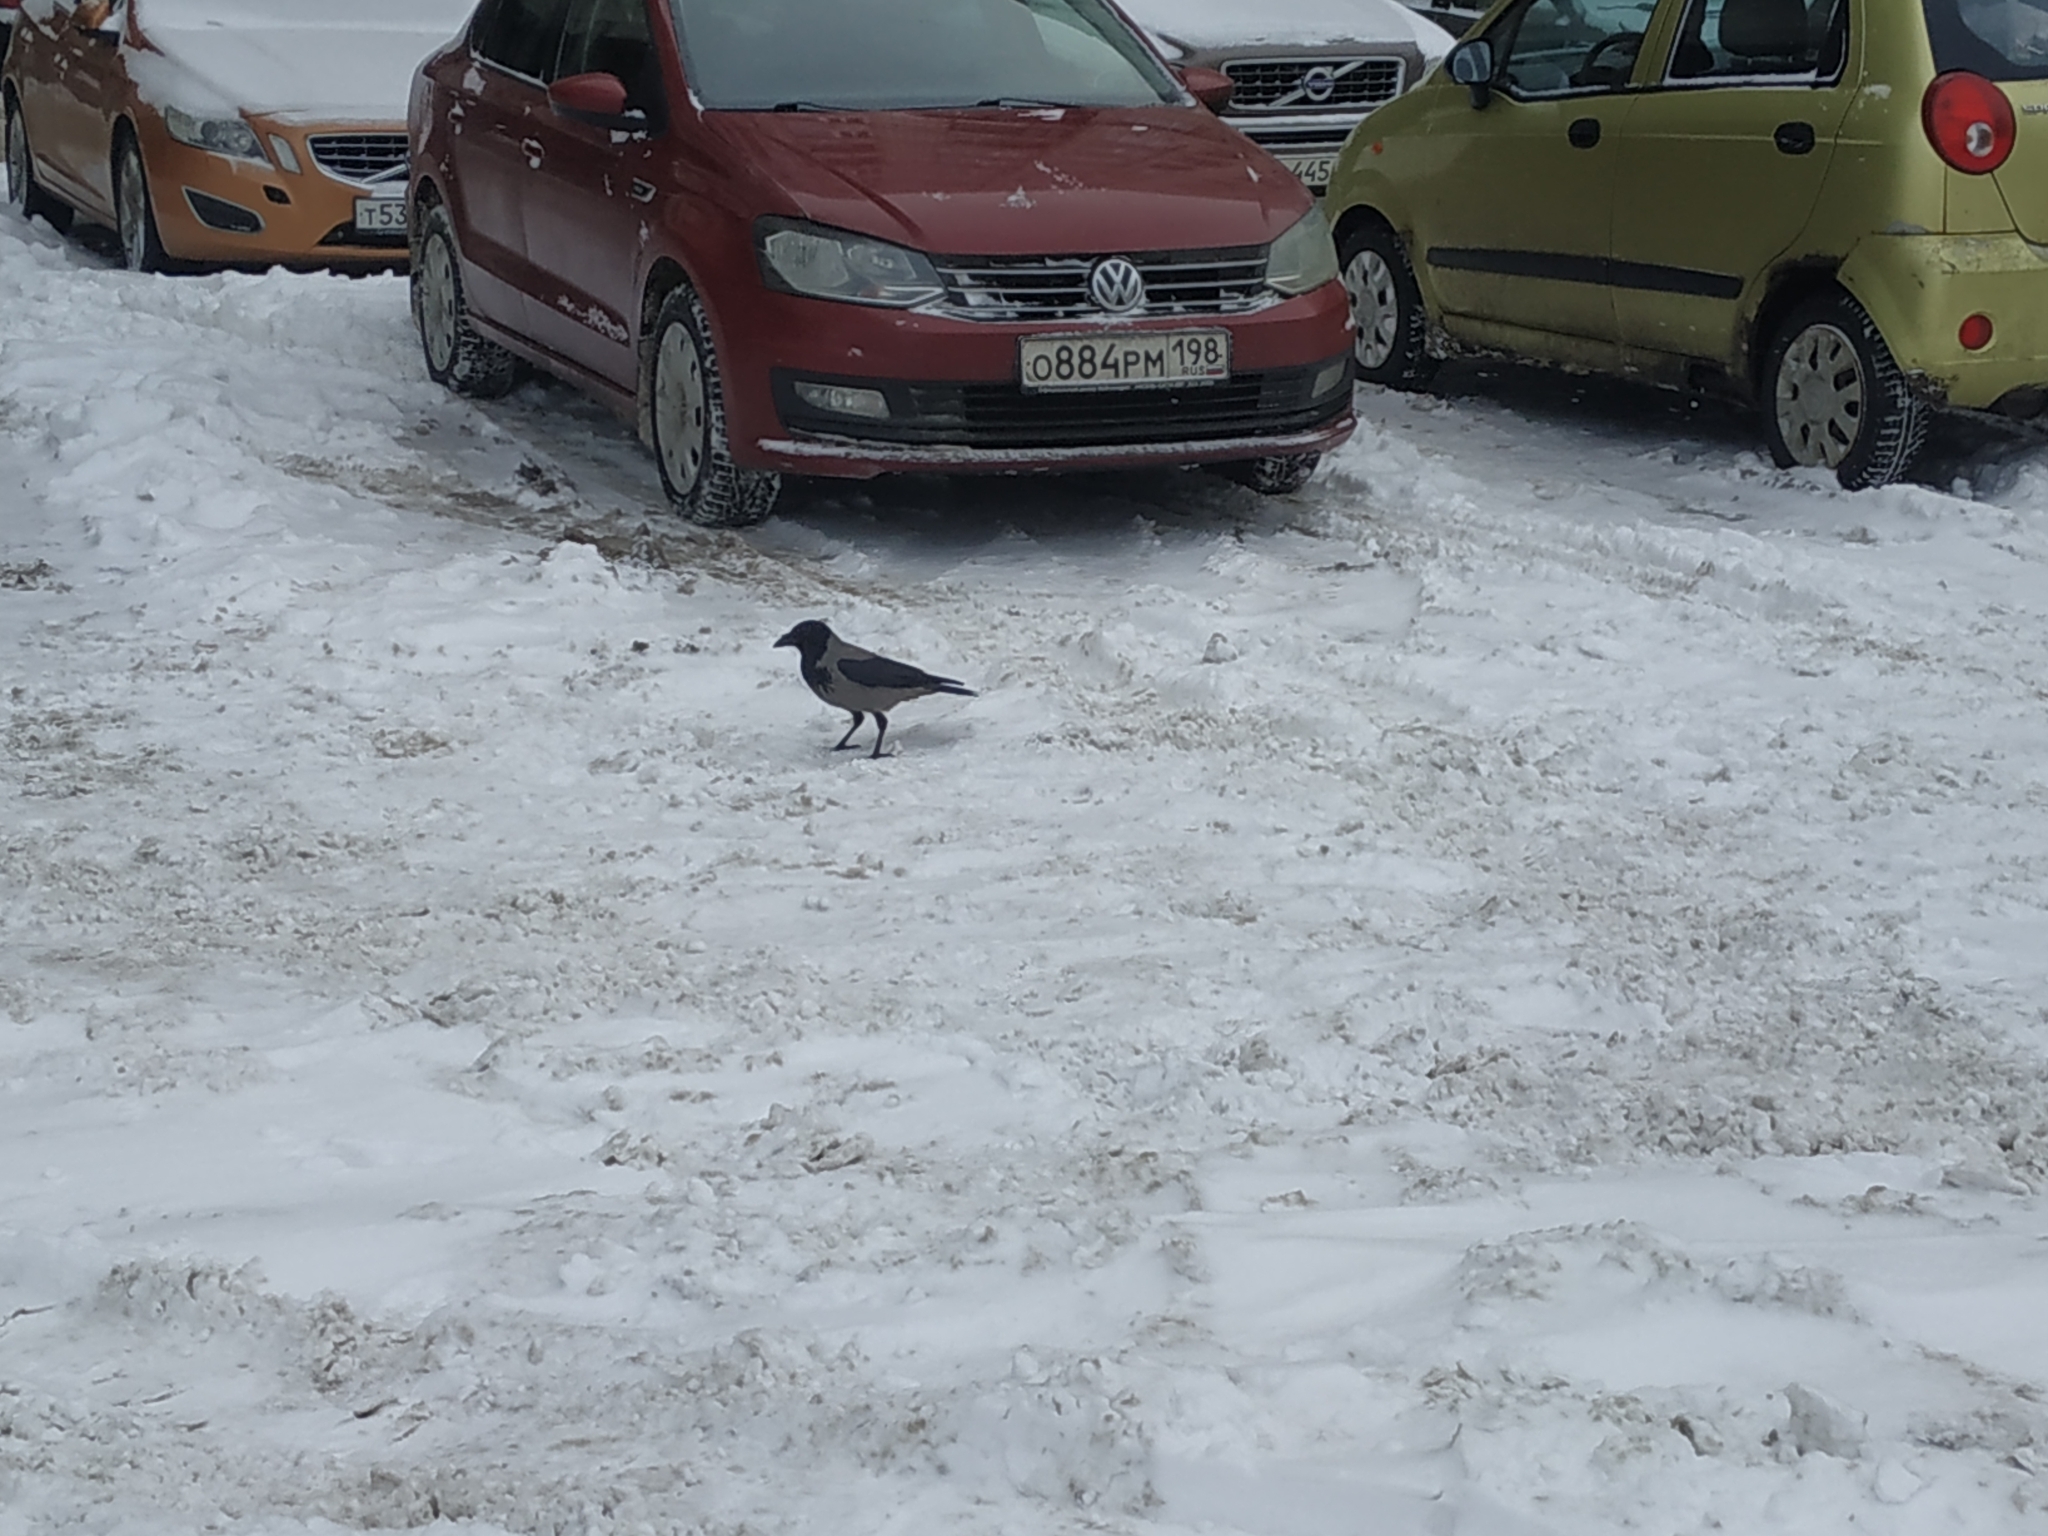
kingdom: Animalia
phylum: Chordata
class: Aves
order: Passeriformes
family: Corvidae
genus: Corvus
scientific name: Corvus cornix
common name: Hooded crow
